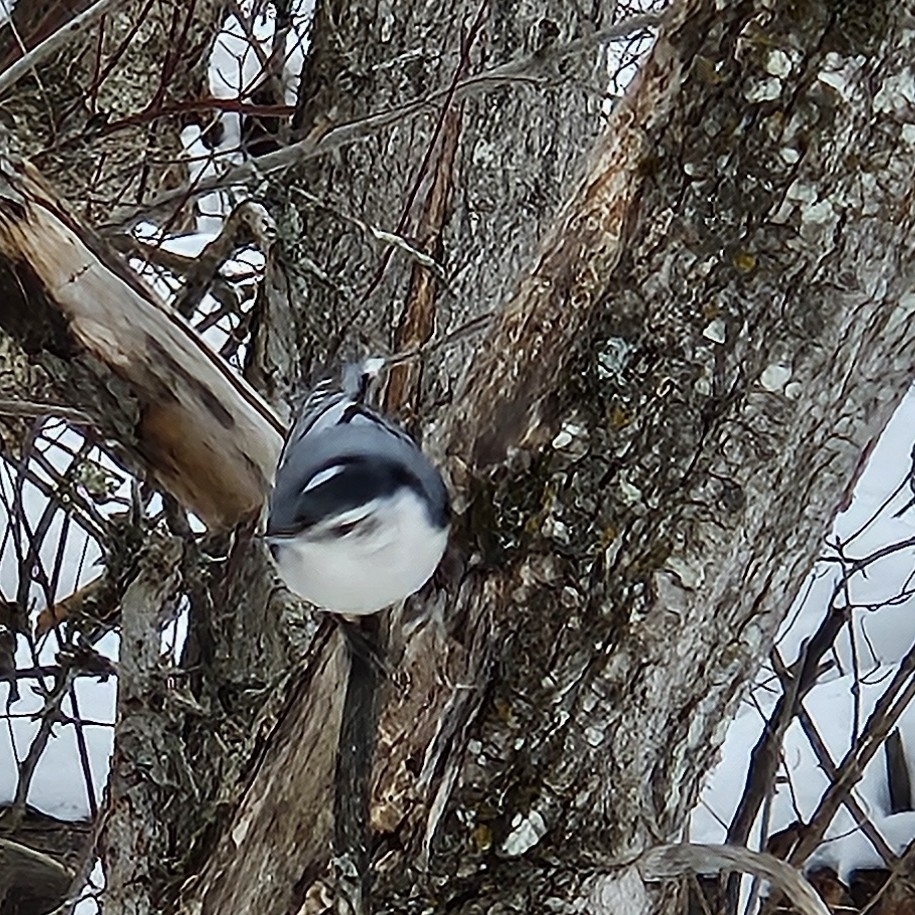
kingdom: Animalia
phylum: Chordata
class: Aves
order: Passeriformes
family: Sittidae
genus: Sitta
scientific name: Sitta carolinensis
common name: White-breasted nuthatch
